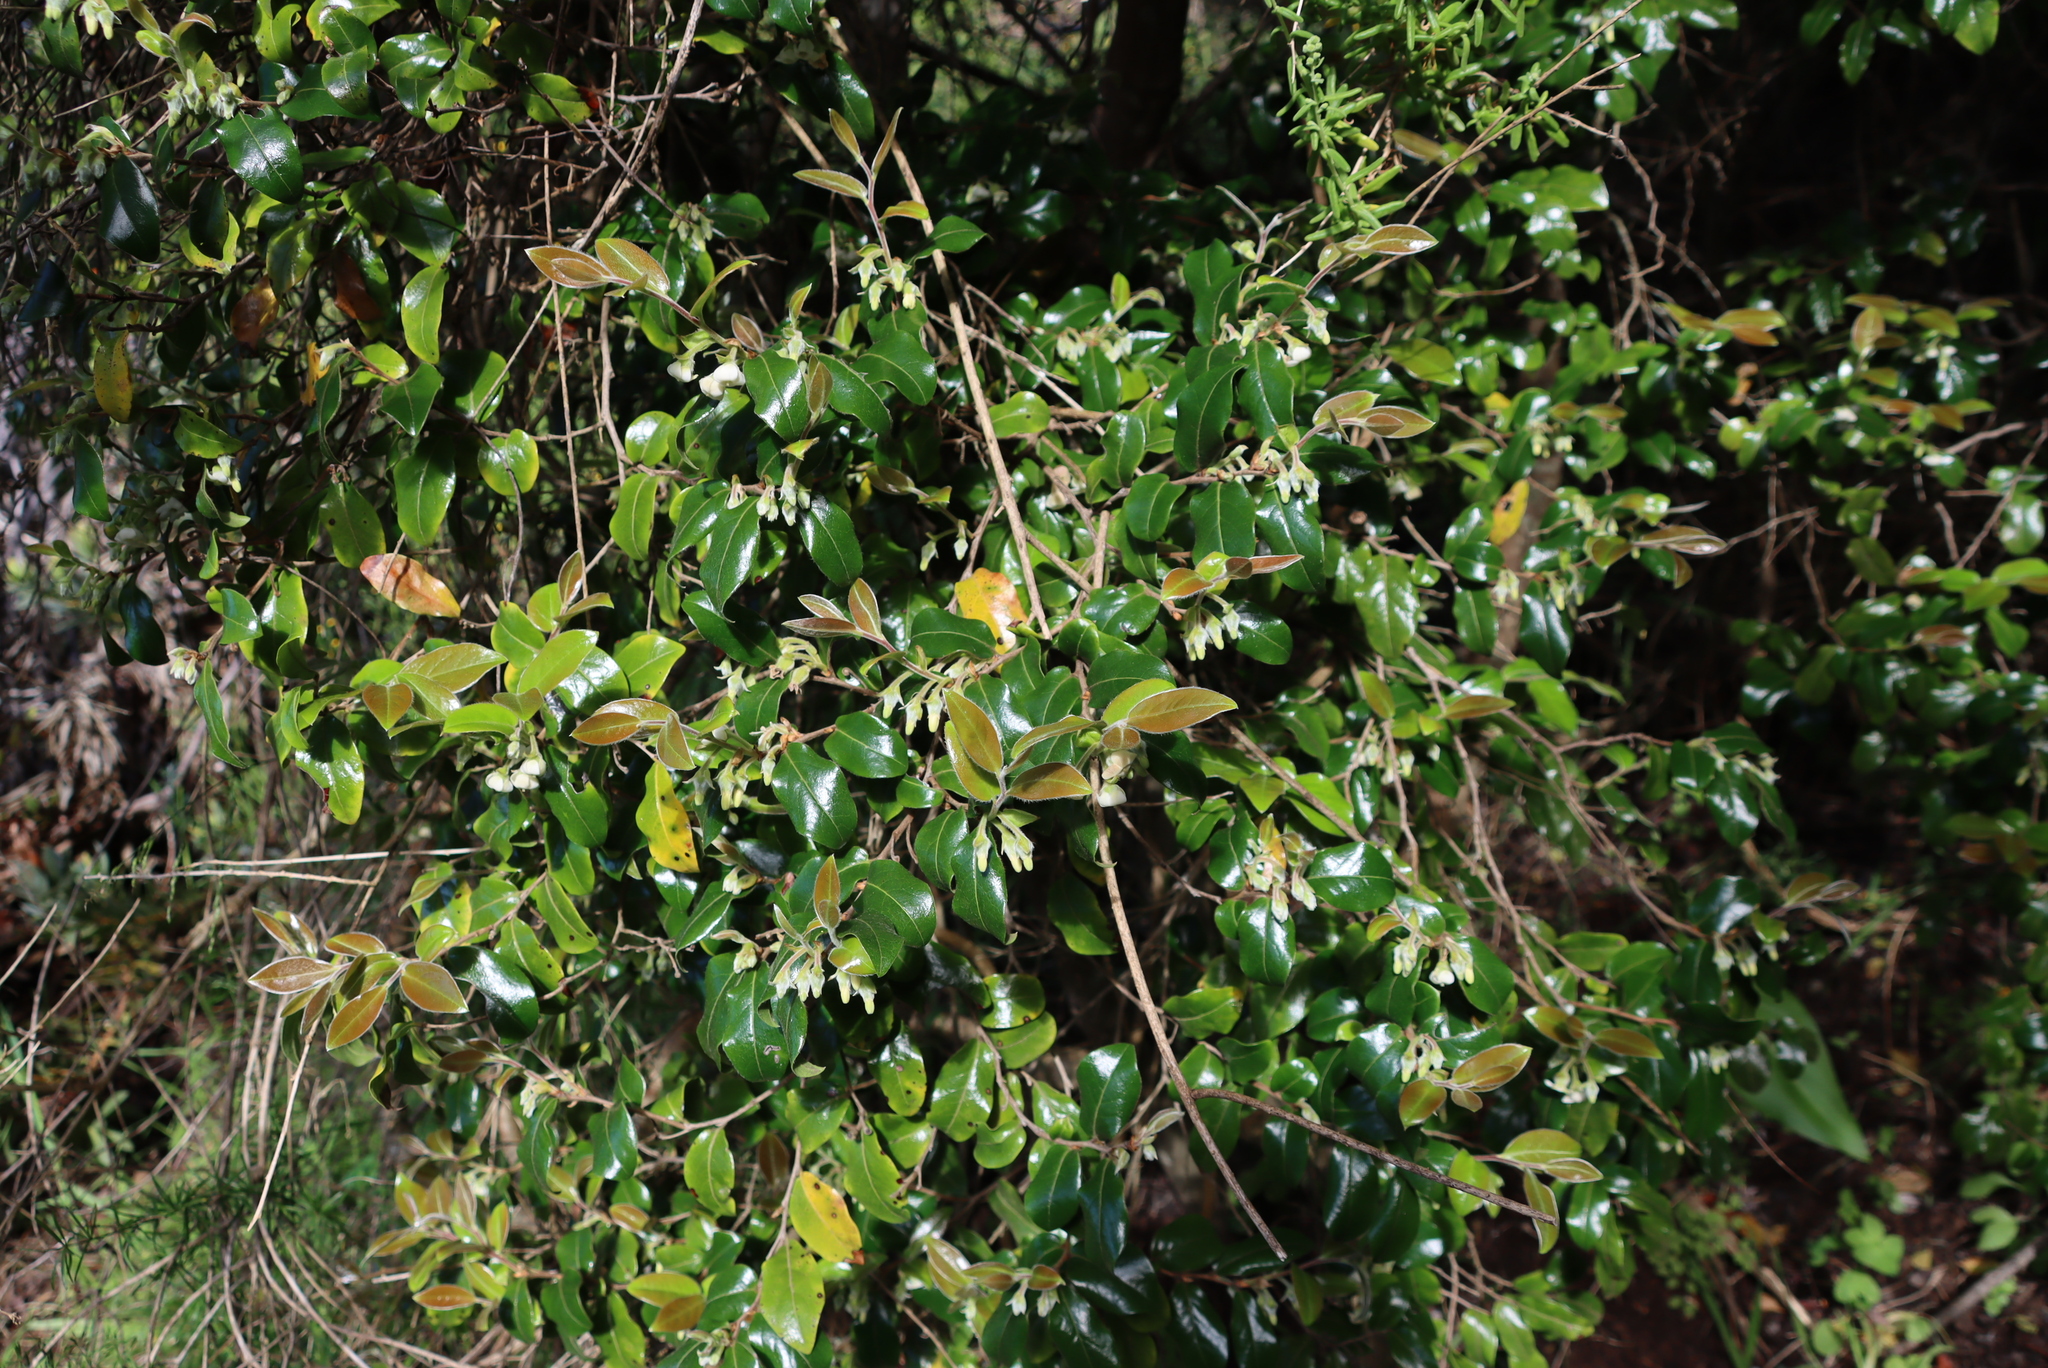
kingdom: Plantae
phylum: Tracheophyta
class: Magnoliopsida
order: Ericales
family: Ebenaceae
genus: Diospyros
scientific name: Diospyros whyteana
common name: Bladder-nut
